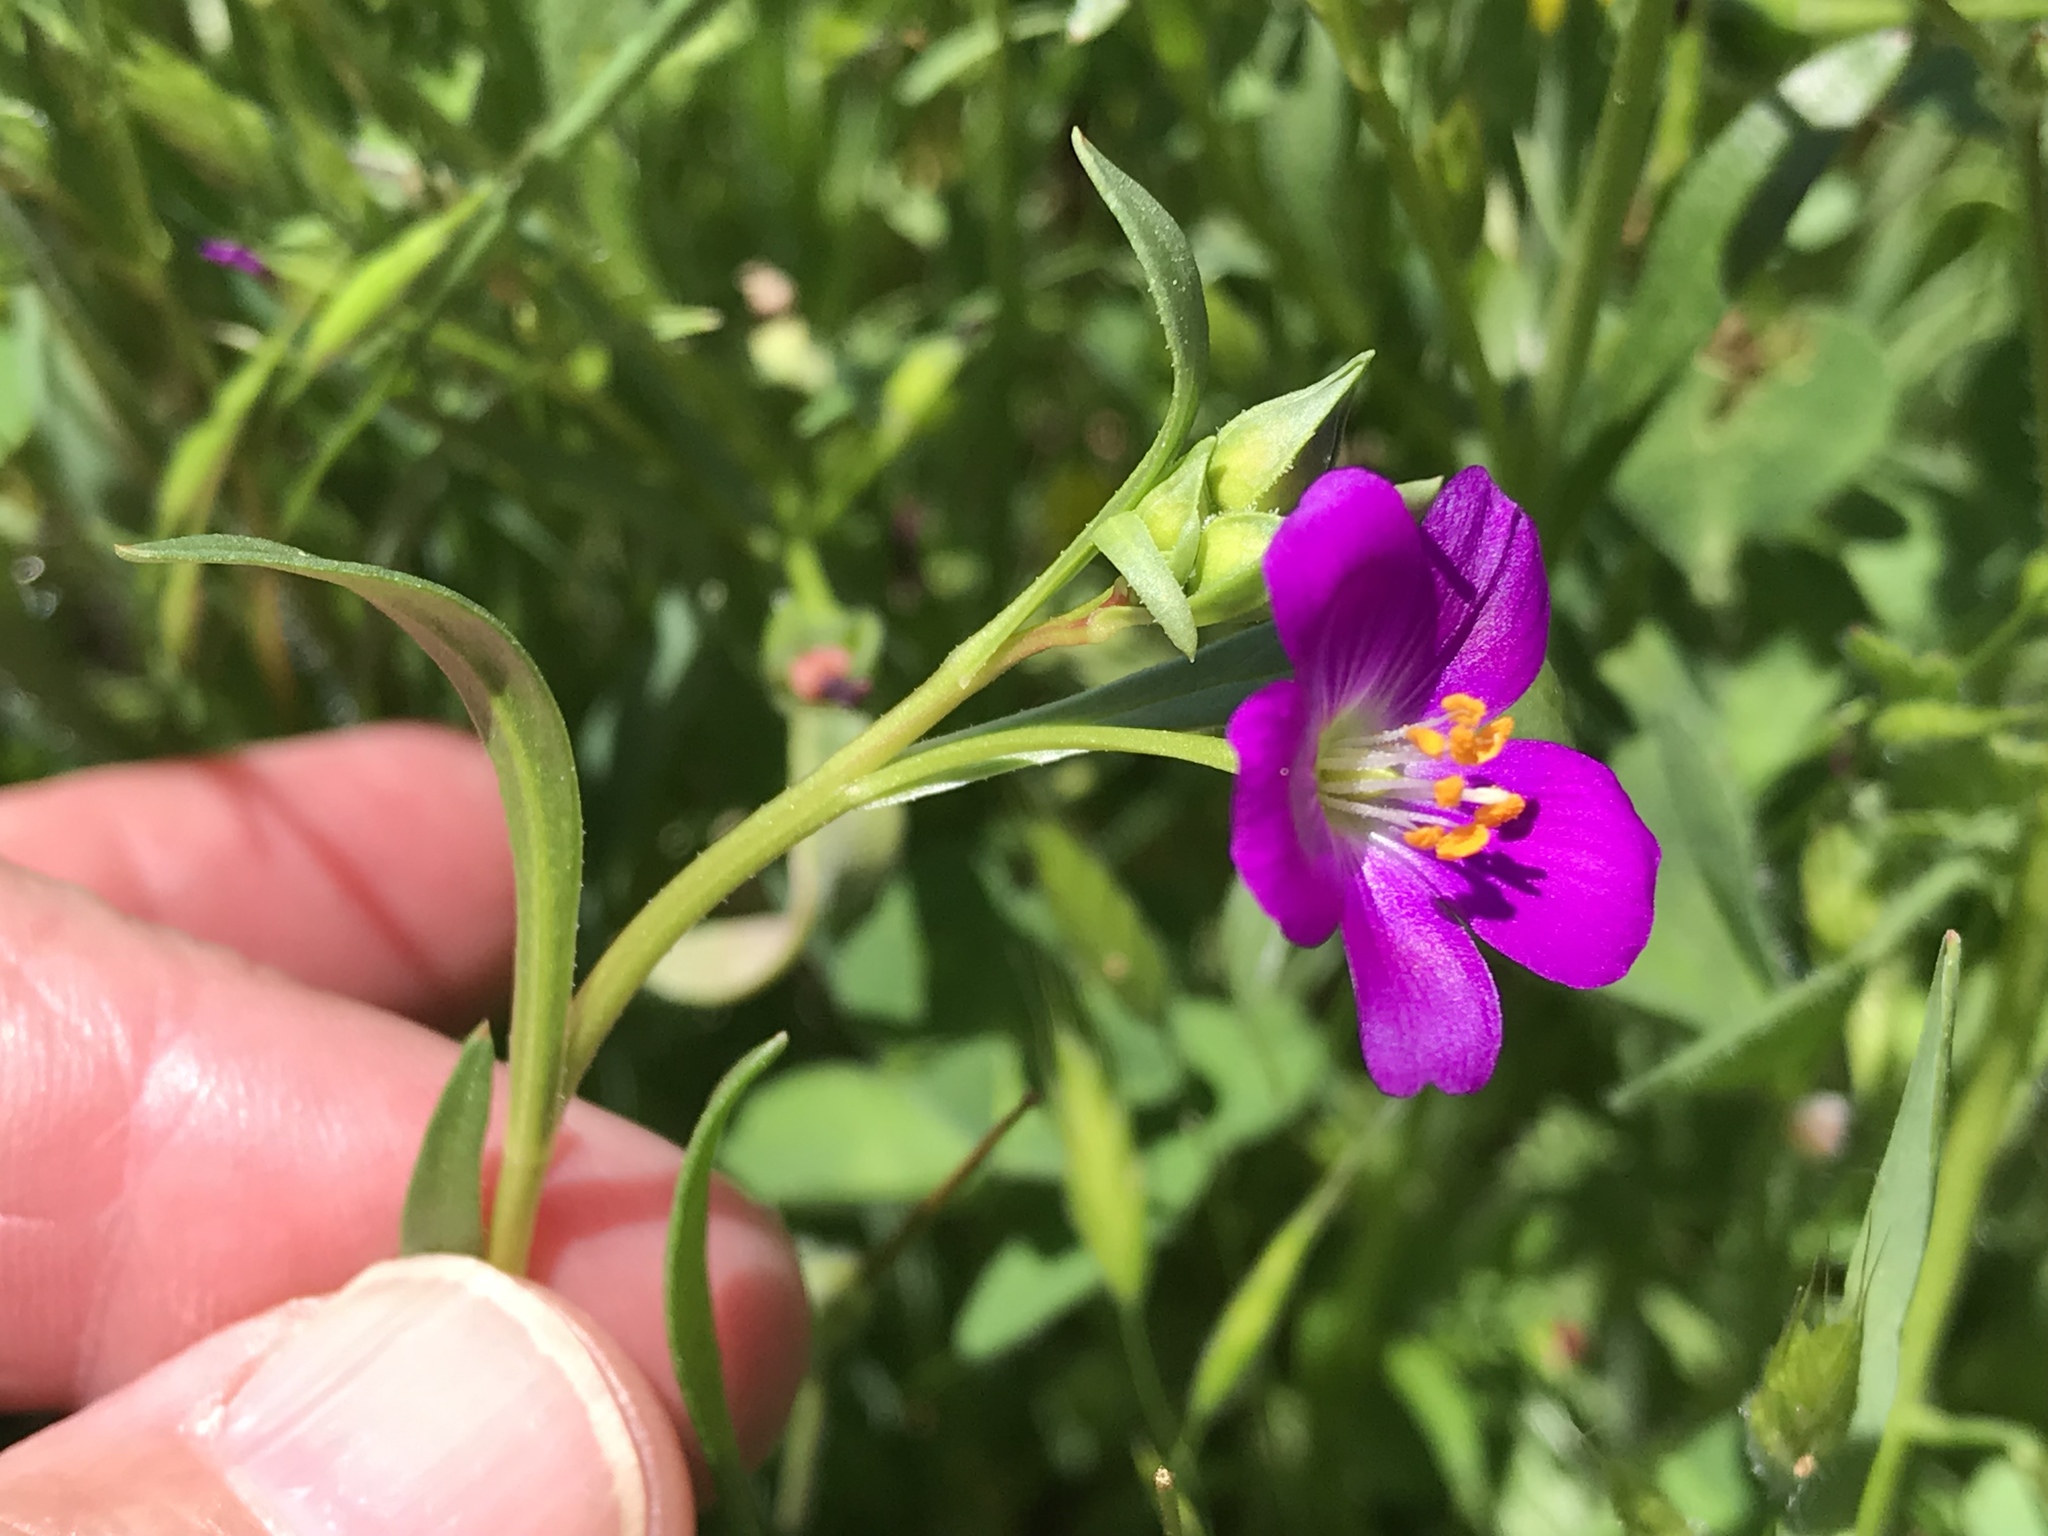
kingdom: Plantae
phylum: Tracheophyta
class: Magnoliopsida
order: Caryophyllales
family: Montiaceae
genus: Calandrinia
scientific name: Calandrinia menziesii
